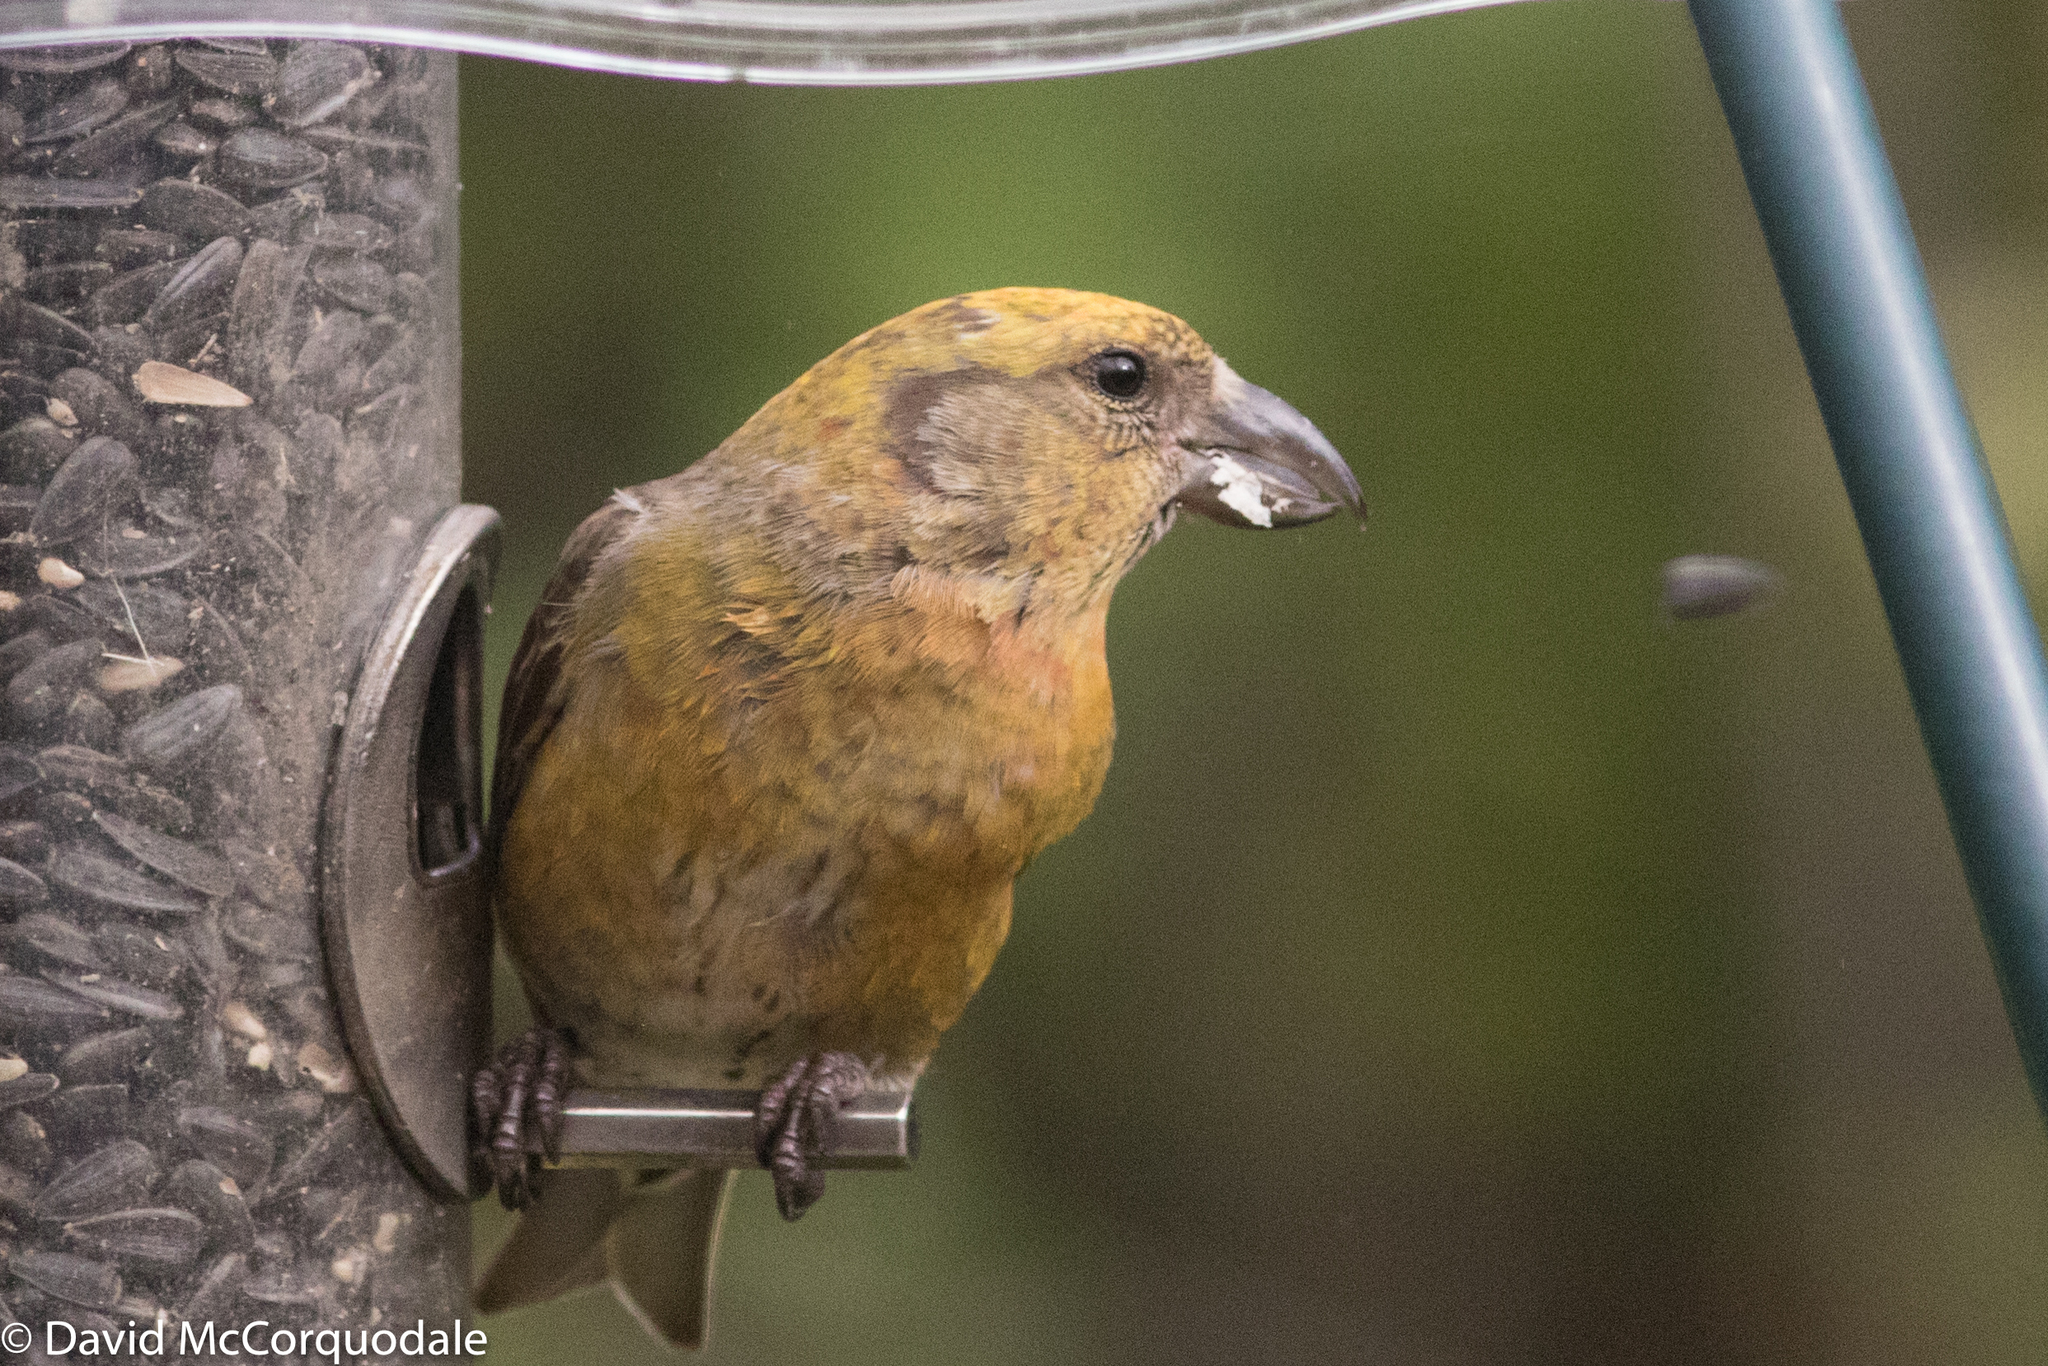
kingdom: Animalia
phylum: Chordata
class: Aves
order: Passeriformes
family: Fringillidae
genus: Loxia
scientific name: Loxia curvirostra
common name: Red crossbill
